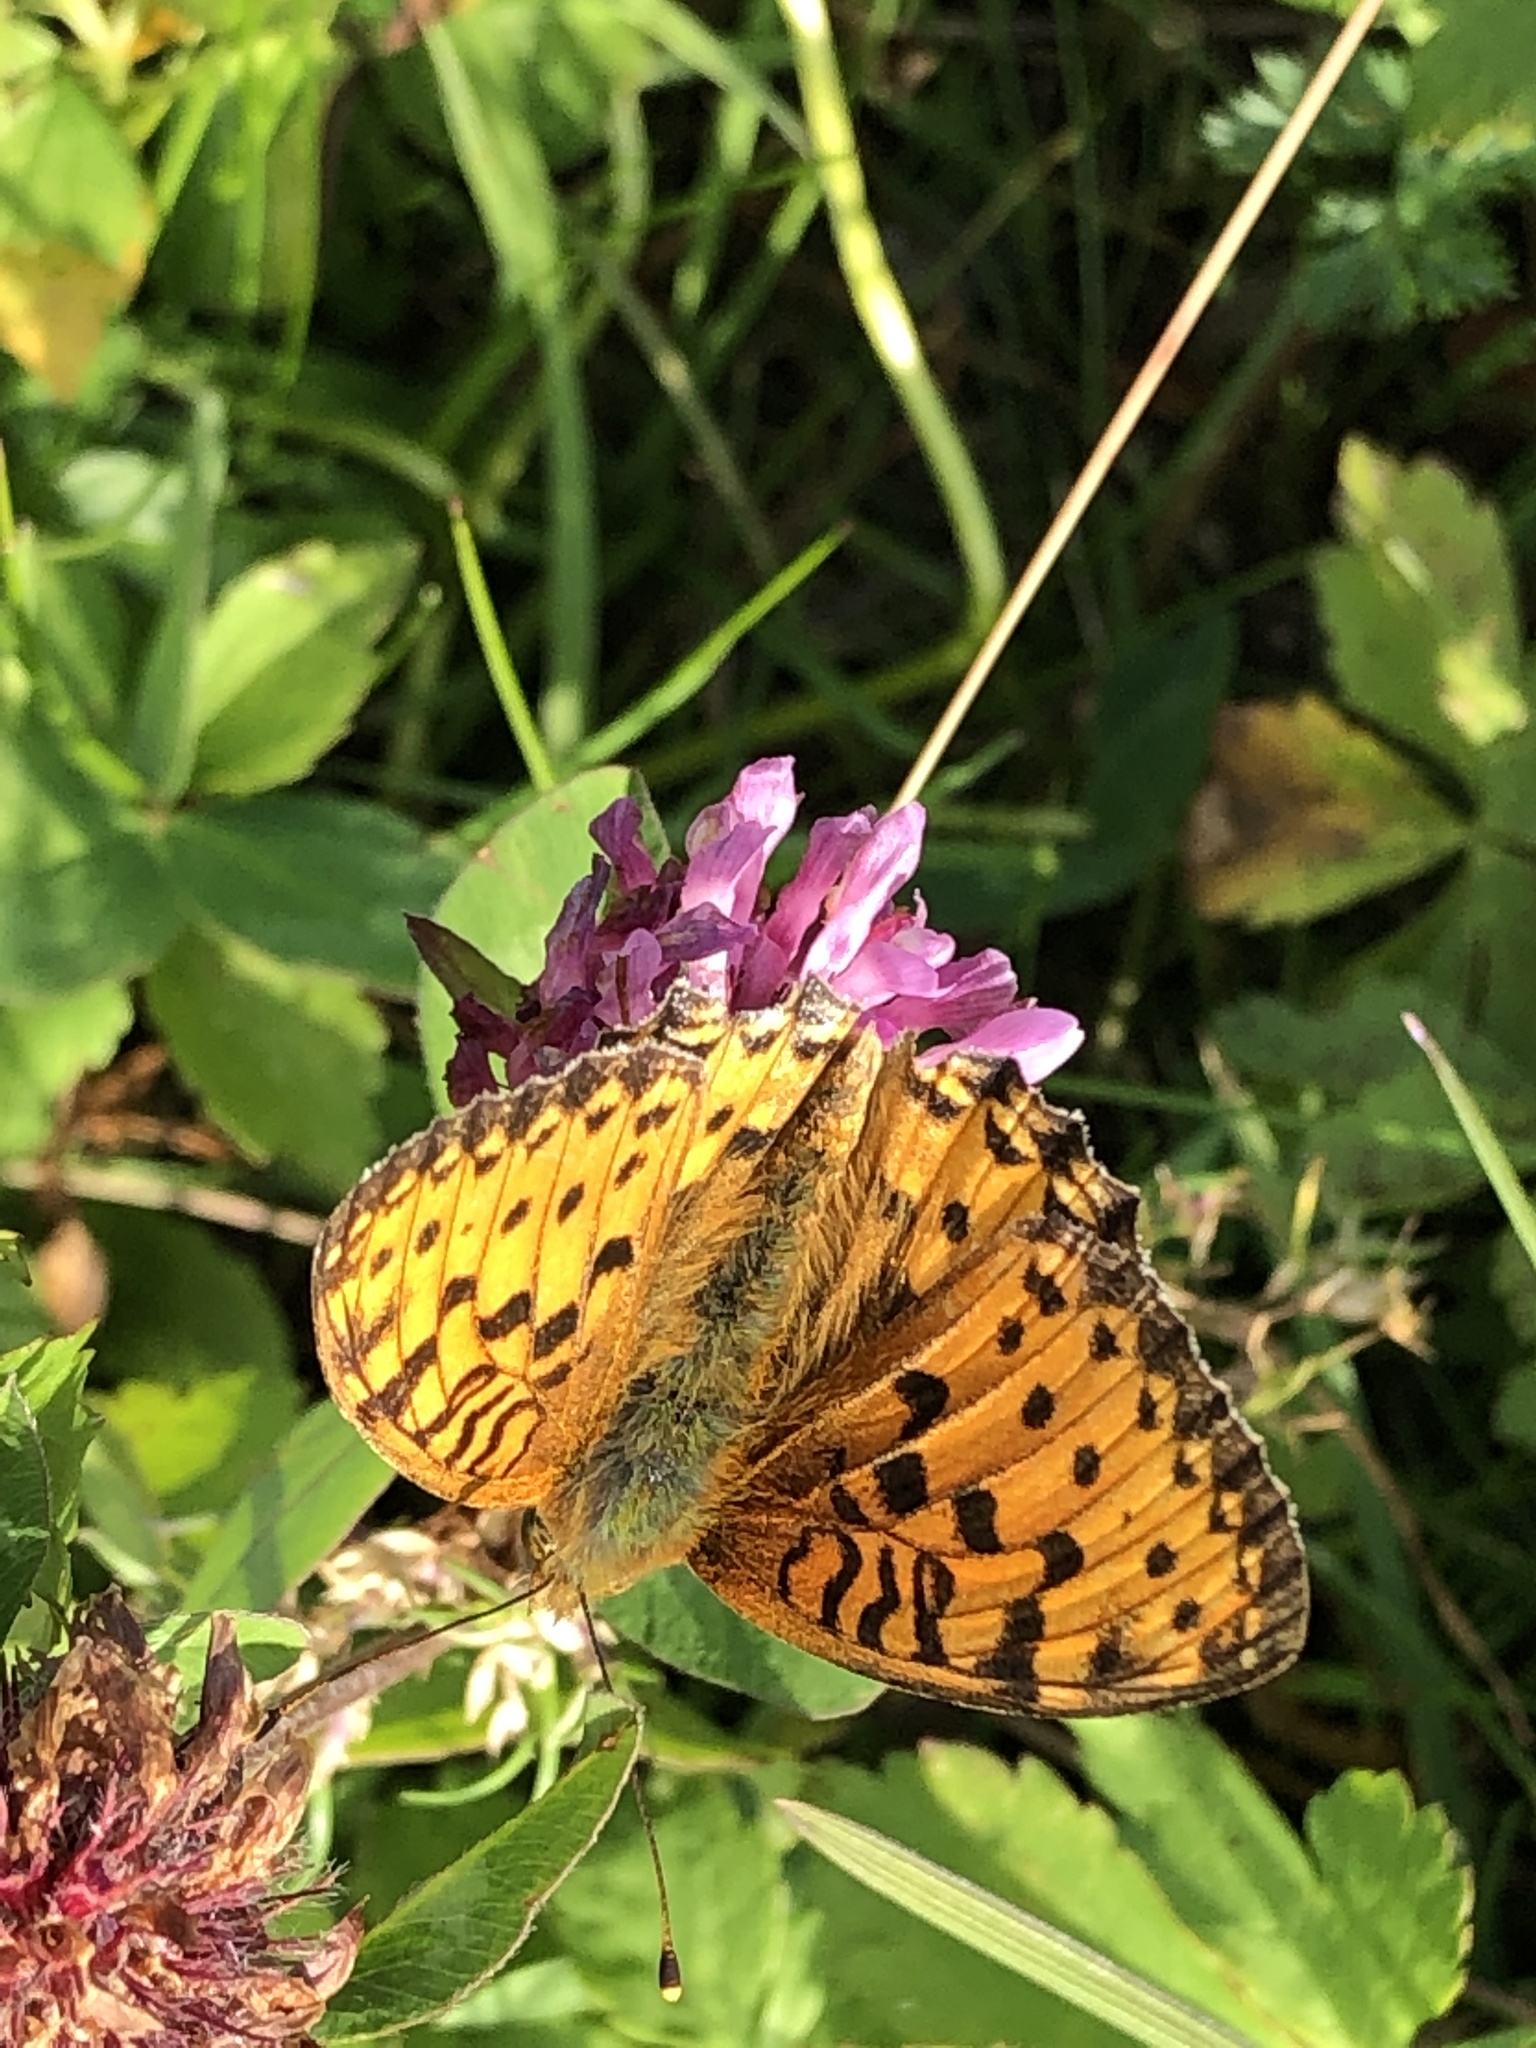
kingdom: Animalia
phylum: Arthropoda
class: Insecta
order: Lepidoptera
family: Nymphalidae
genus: Speyeria
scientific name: Speyeria aglaja
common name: Dark green fritillary
